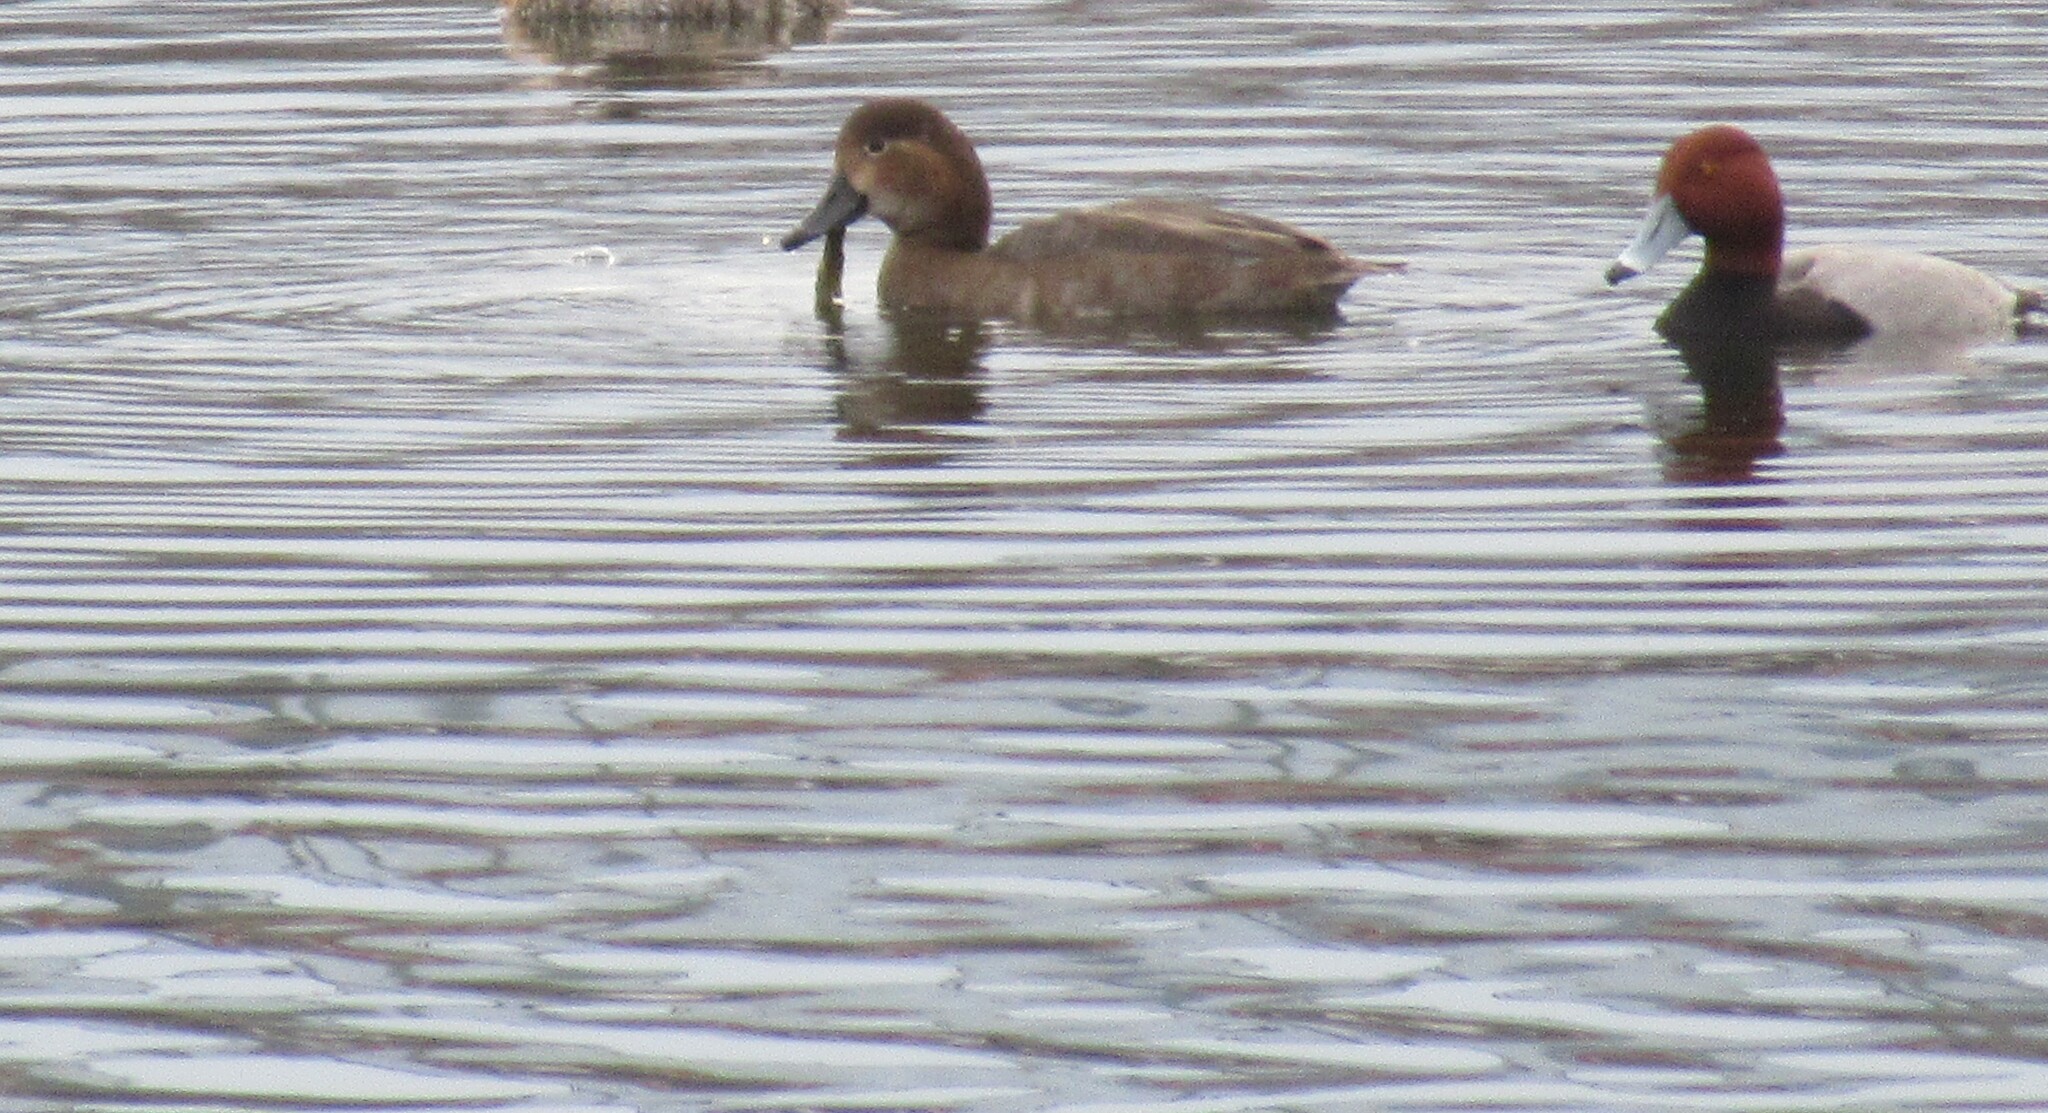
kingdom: Animalia
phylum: Chordata
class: Aves
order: Anseriformes
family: Anatidae
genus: Aythya
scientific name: Aythya americana
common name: Redhead
